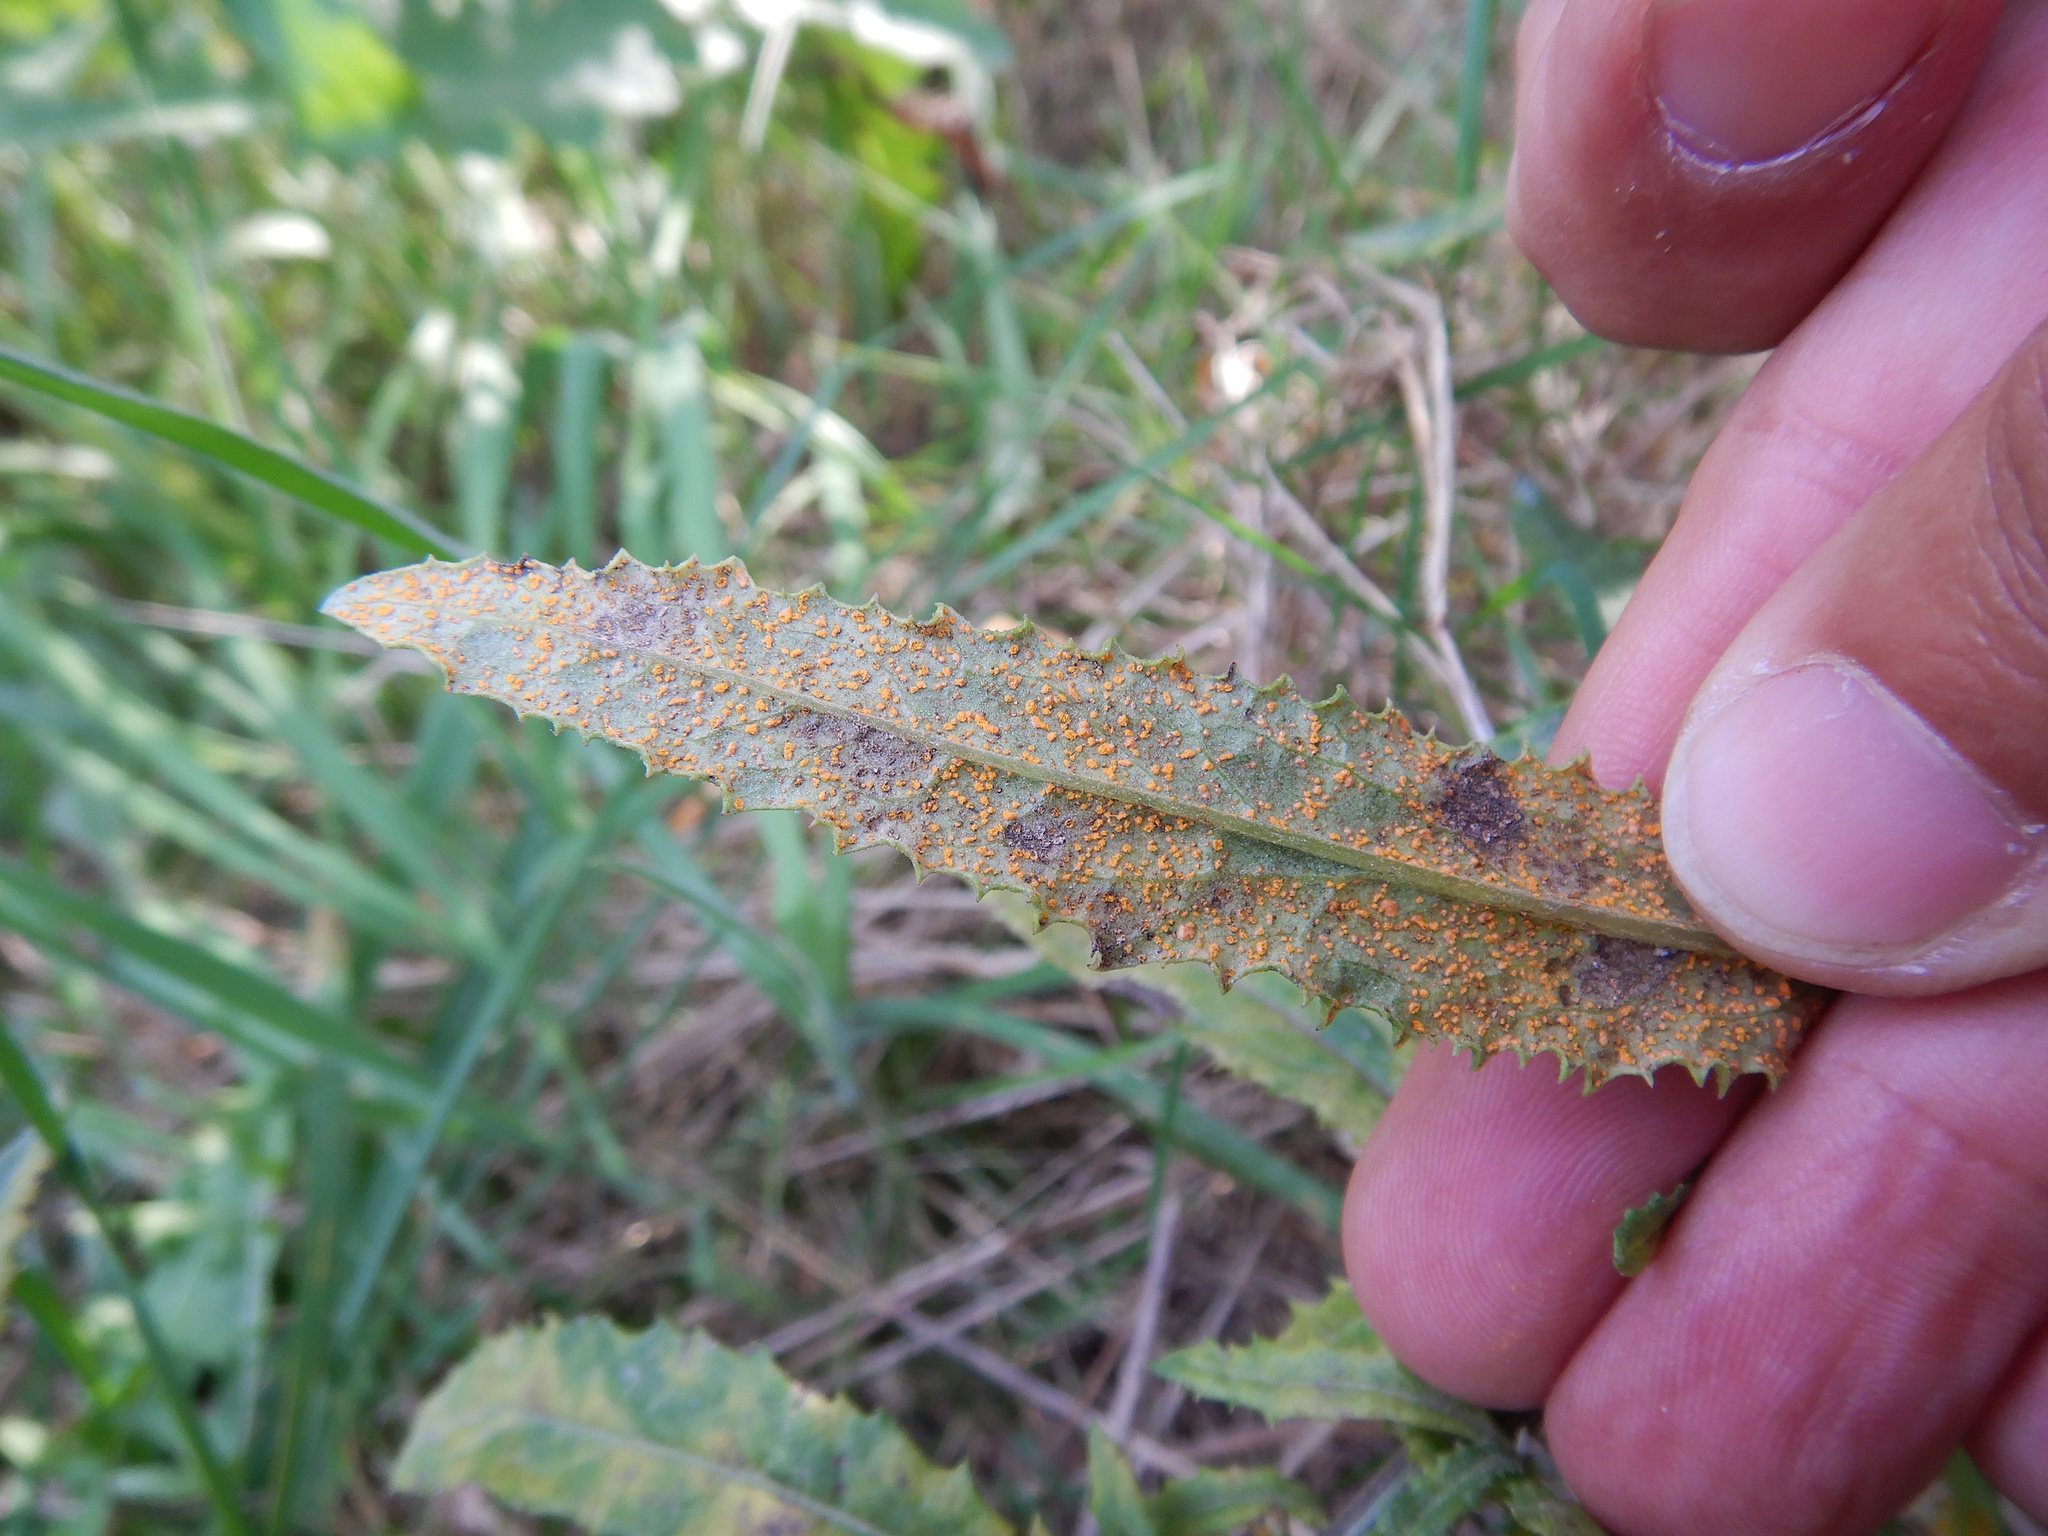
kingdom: Fungi
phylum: Basidiomycota
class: Pucciniomycetes
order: Pucciniales
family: Coleosporiaceae
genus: Coleosporium
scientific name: Coleosporium tussilaginis
